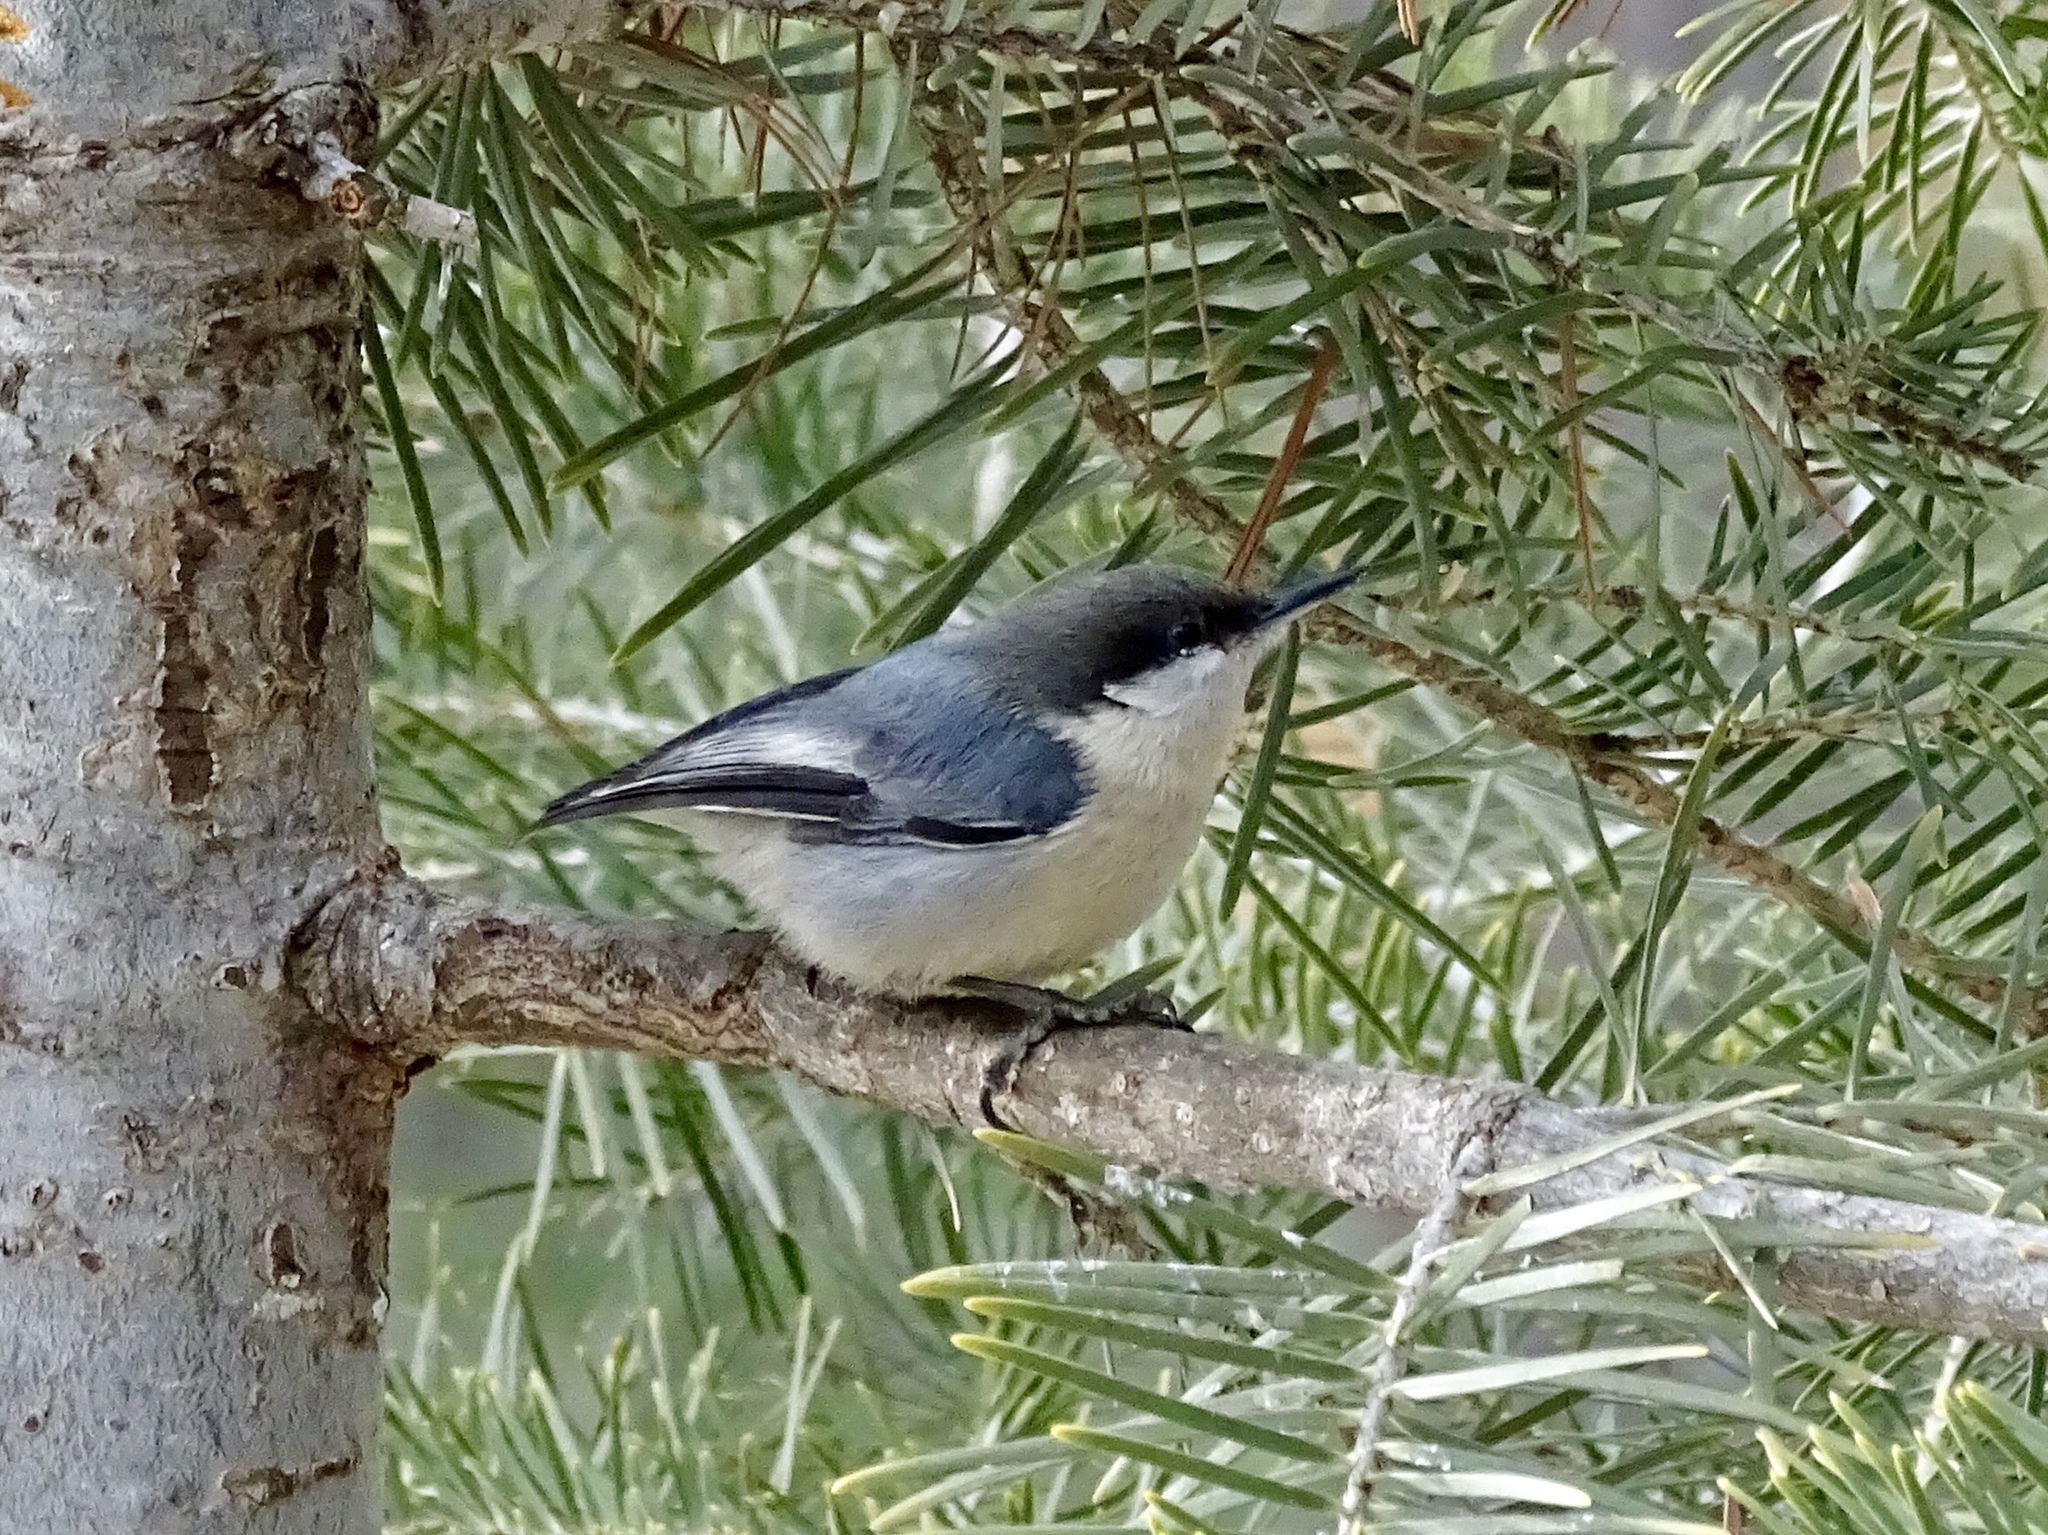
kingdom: Animalia
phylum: Chordata
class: Aves
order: Passeriformes
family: Sittidae
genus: Sitta
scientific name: Sitta pygmaea
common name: Pygmy nuthatch
